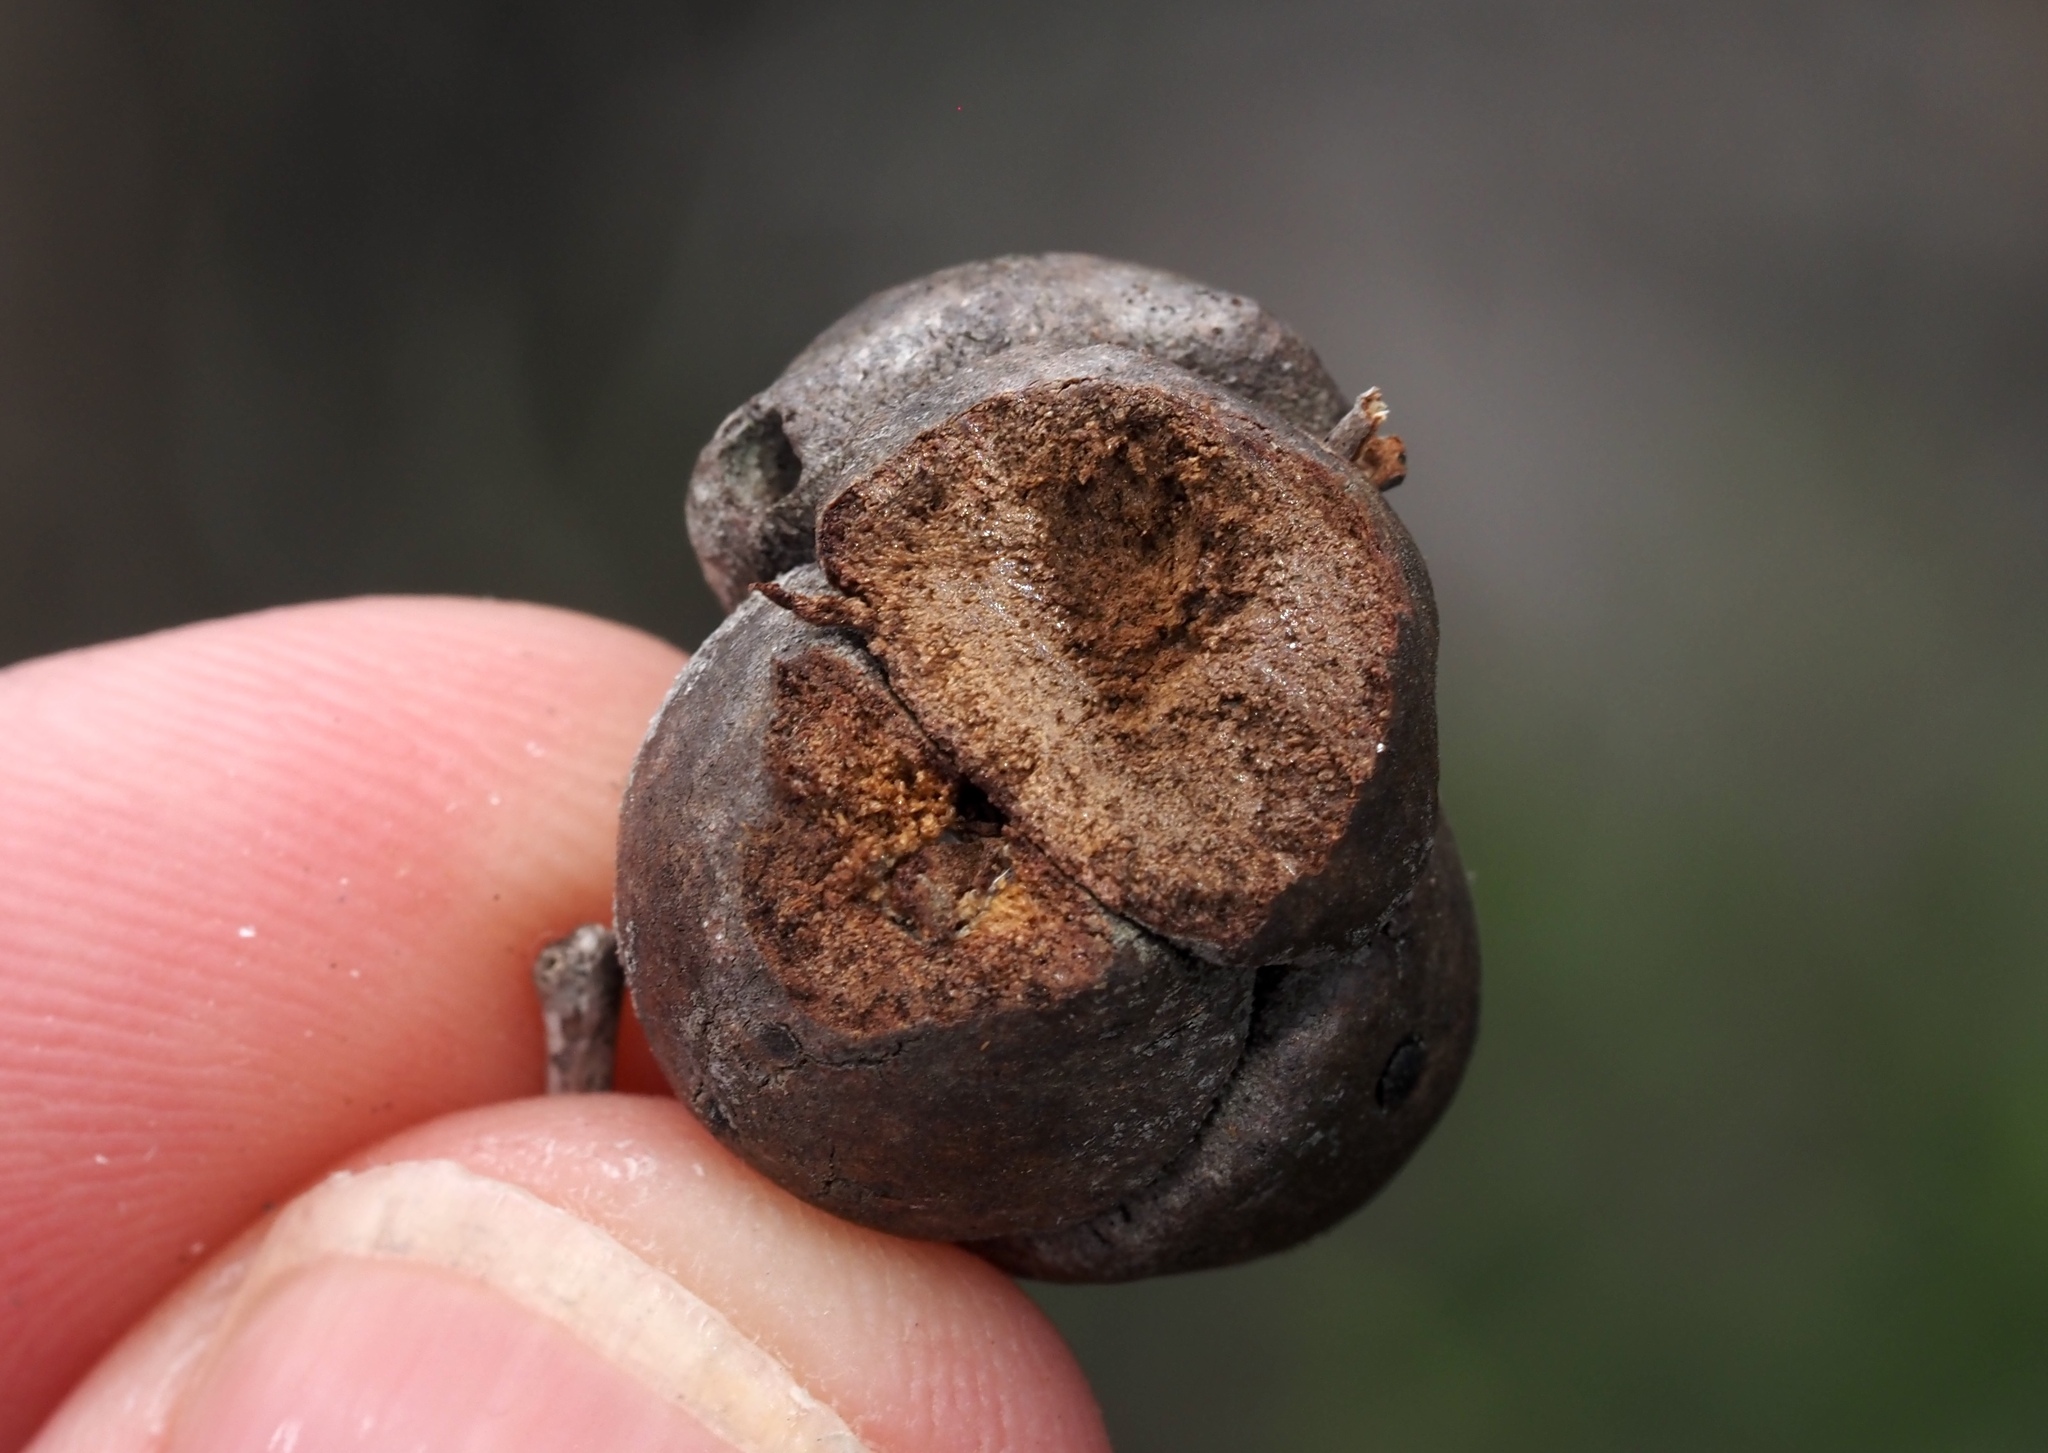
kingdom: Animalia
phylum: Arthropoda
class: Insecta
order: Hymenoptera
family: Cynipidae
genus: Disholcaspis
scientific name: Disholcaspis
